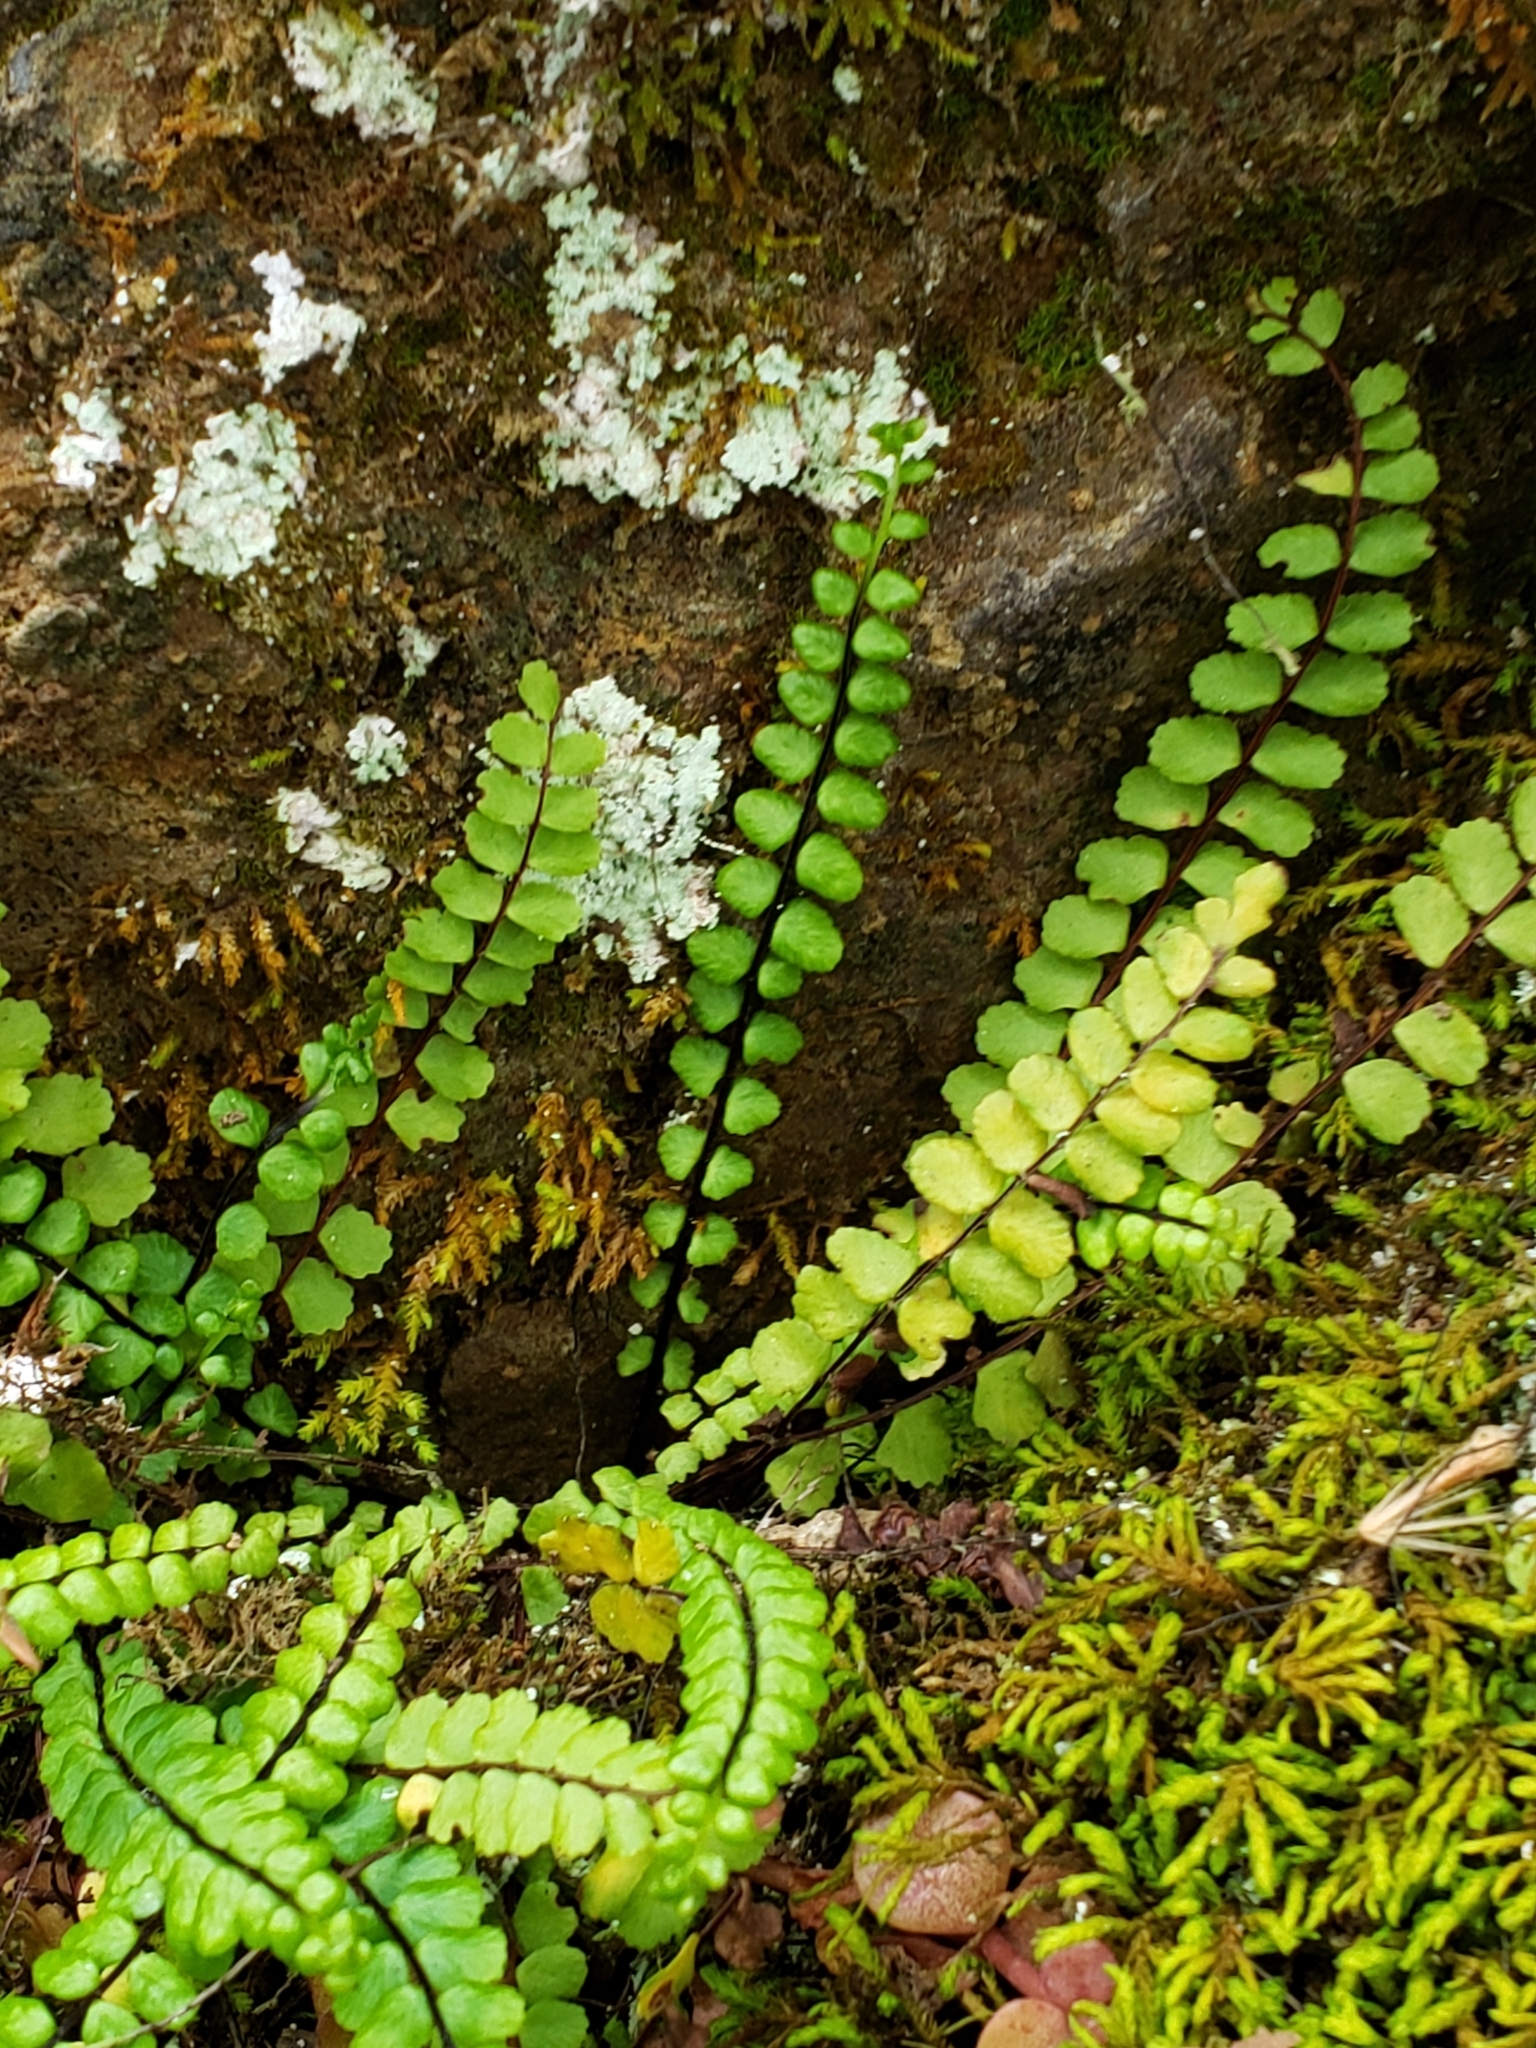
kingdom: Plantae
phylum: Tracheophyta
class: Polypodiopsida
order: Polypodiales
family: Aspleniaceae
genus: Asplenium
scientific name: Asplenium trichomanes
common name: Maidenhair spleenwort
